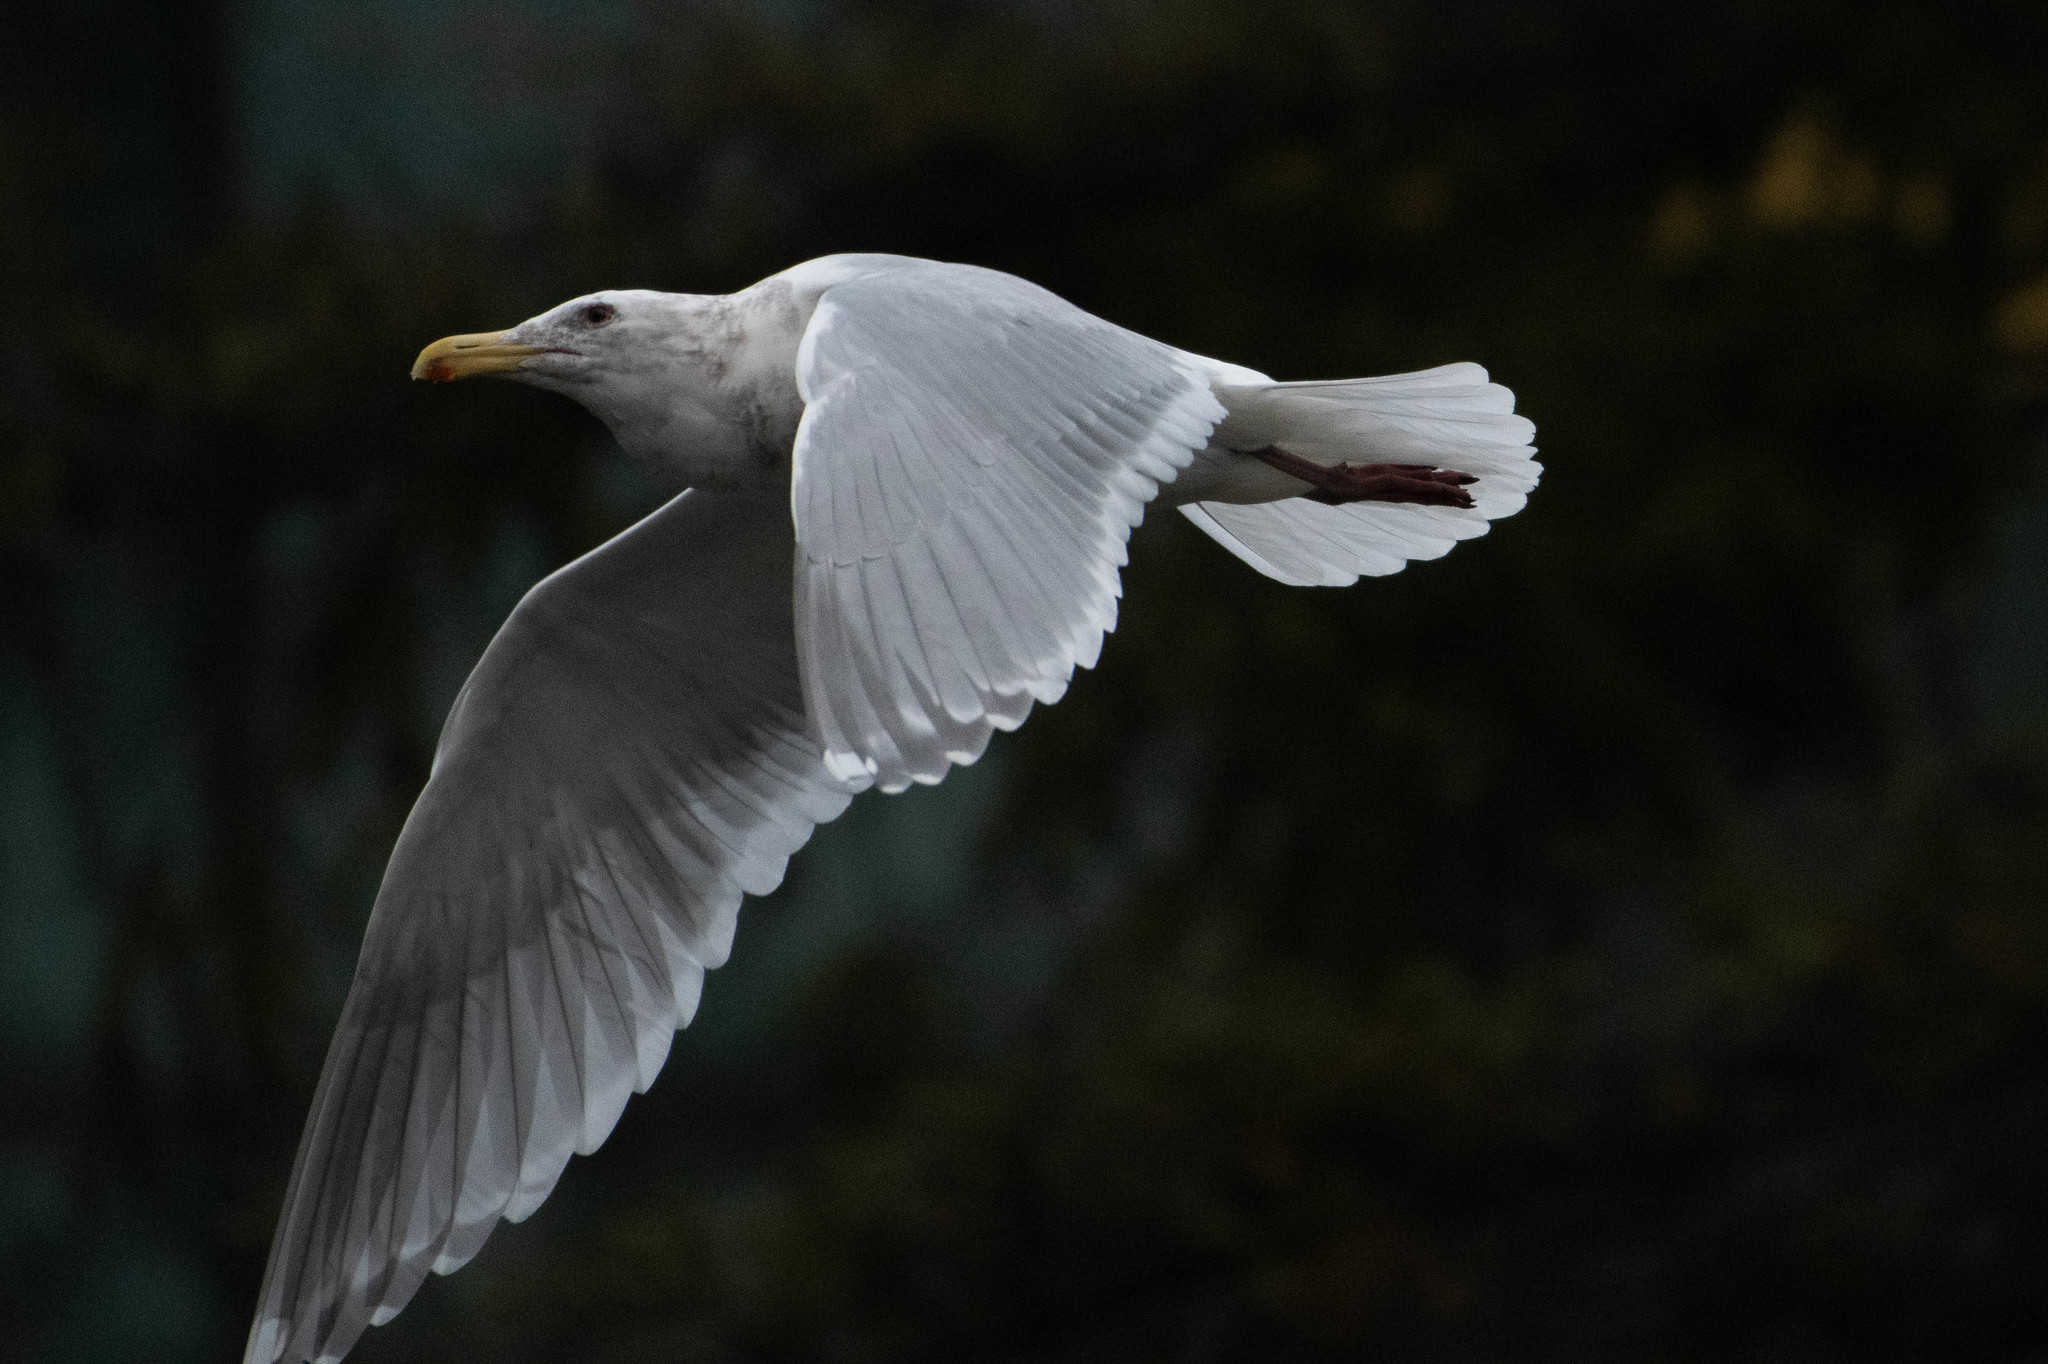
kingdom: Animalia
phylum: Chordata
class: Aves
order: Charadriiformes
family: Laridae
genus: Larus
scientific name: Larus glaucescens
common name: Glaucous-winged gull
